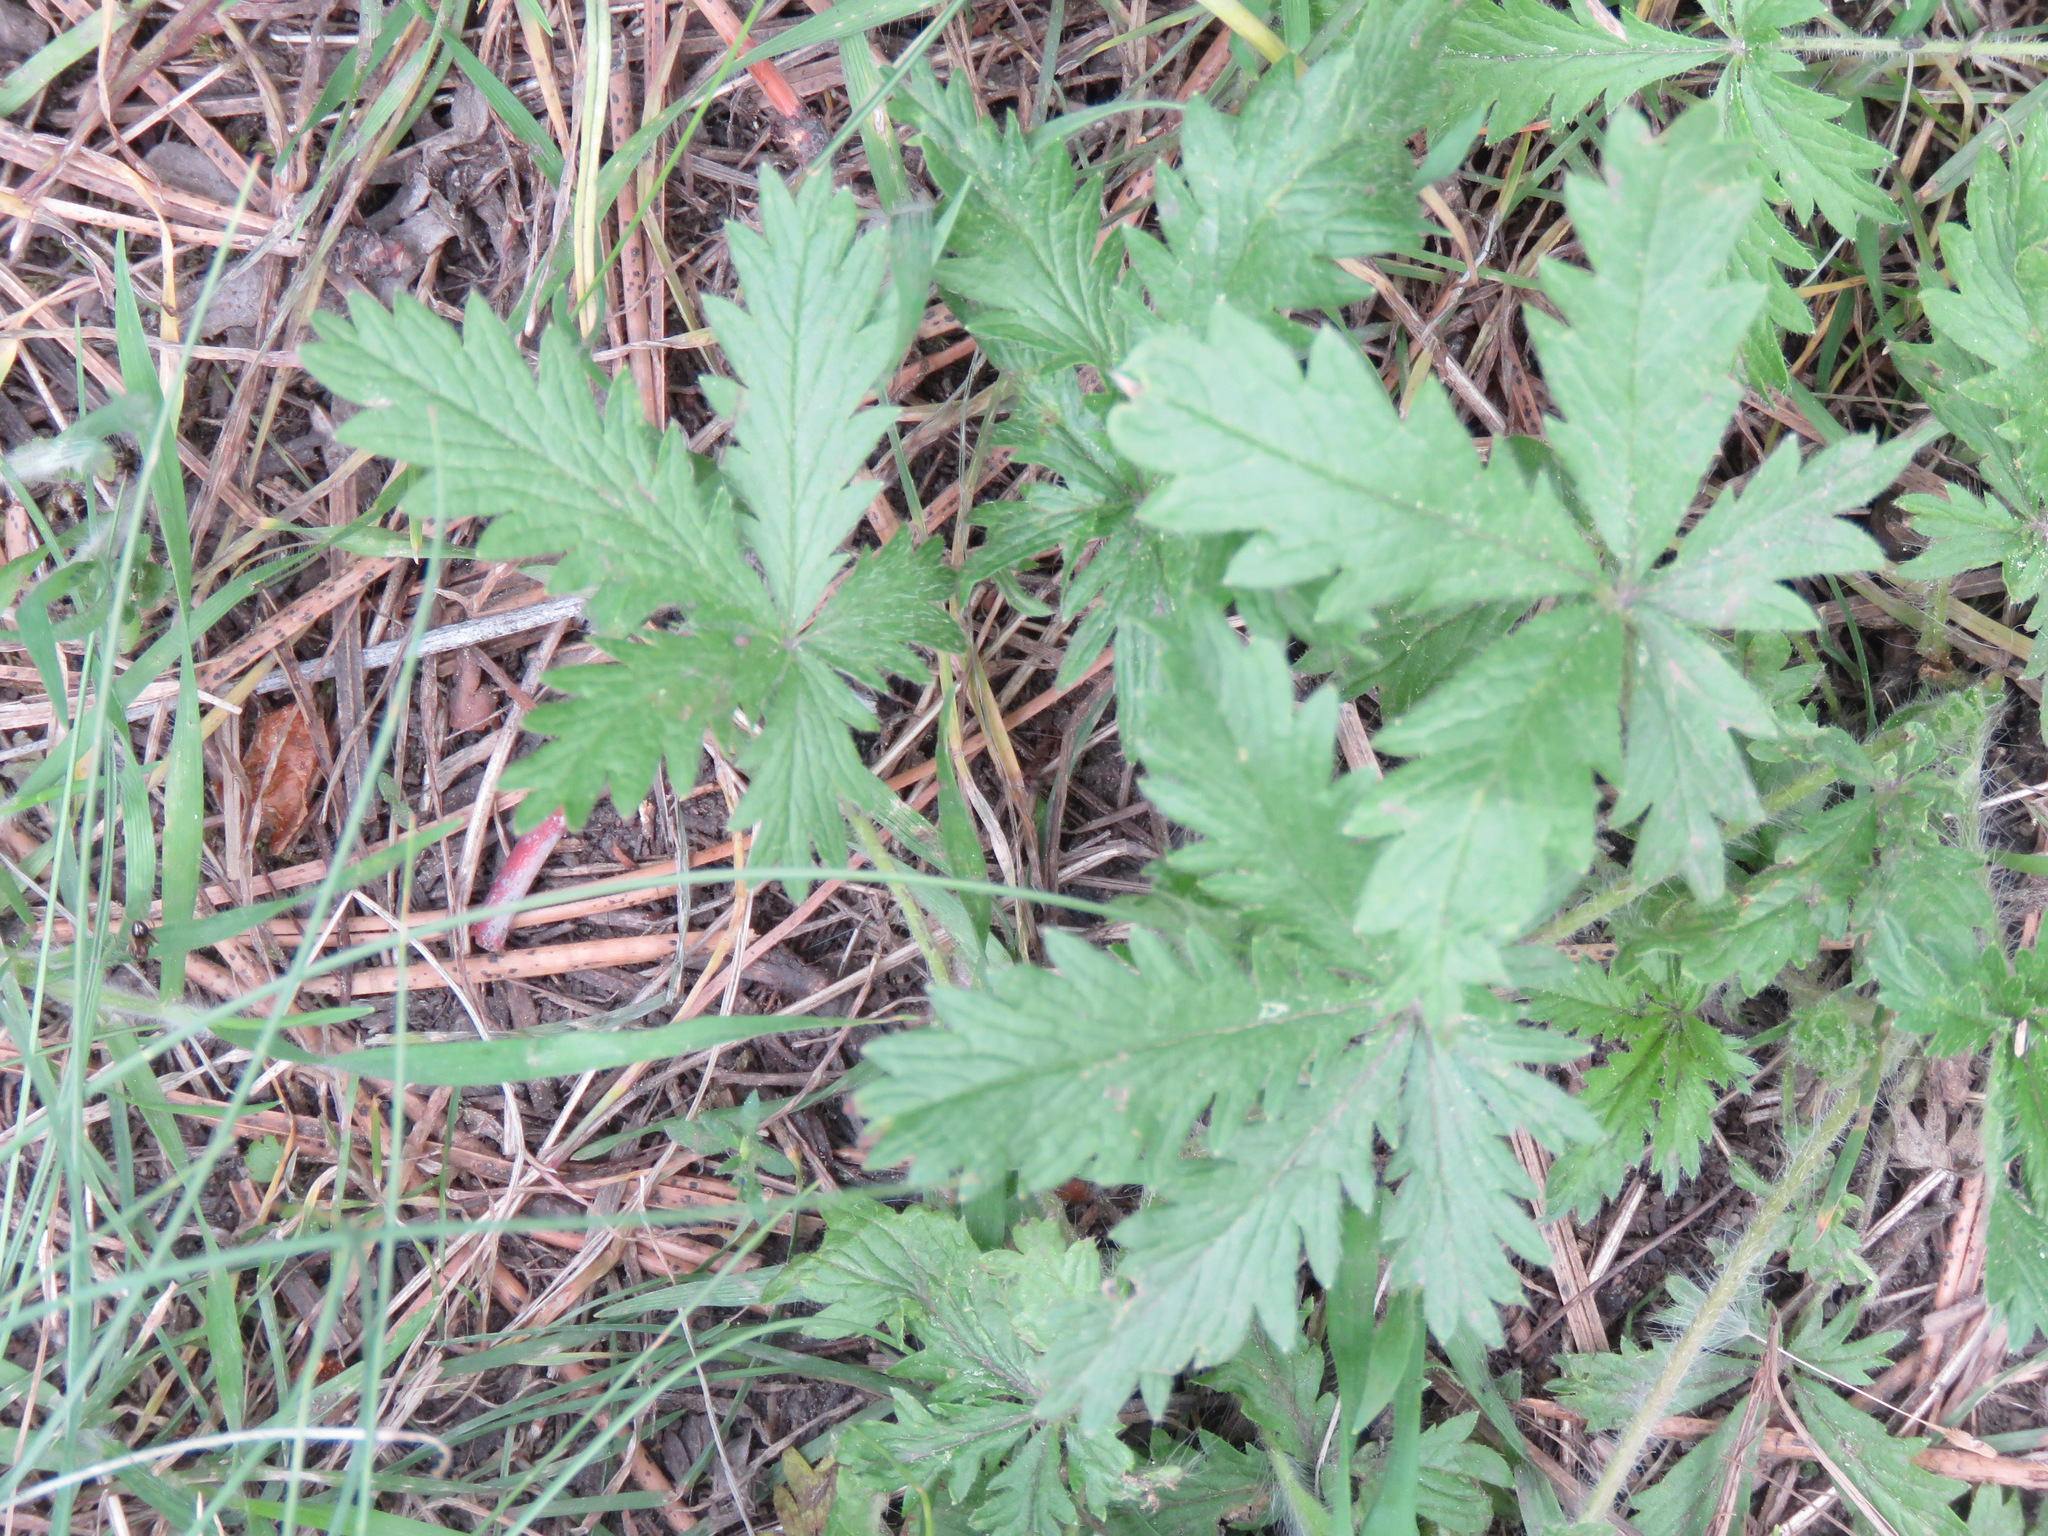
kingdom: Plantae
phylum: Tracheophyta
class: Magnoliopsida
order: Rosales
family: Rosaceae
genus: Potentilla
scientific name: Potentilla recta
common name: Sulphur cinquefoil
